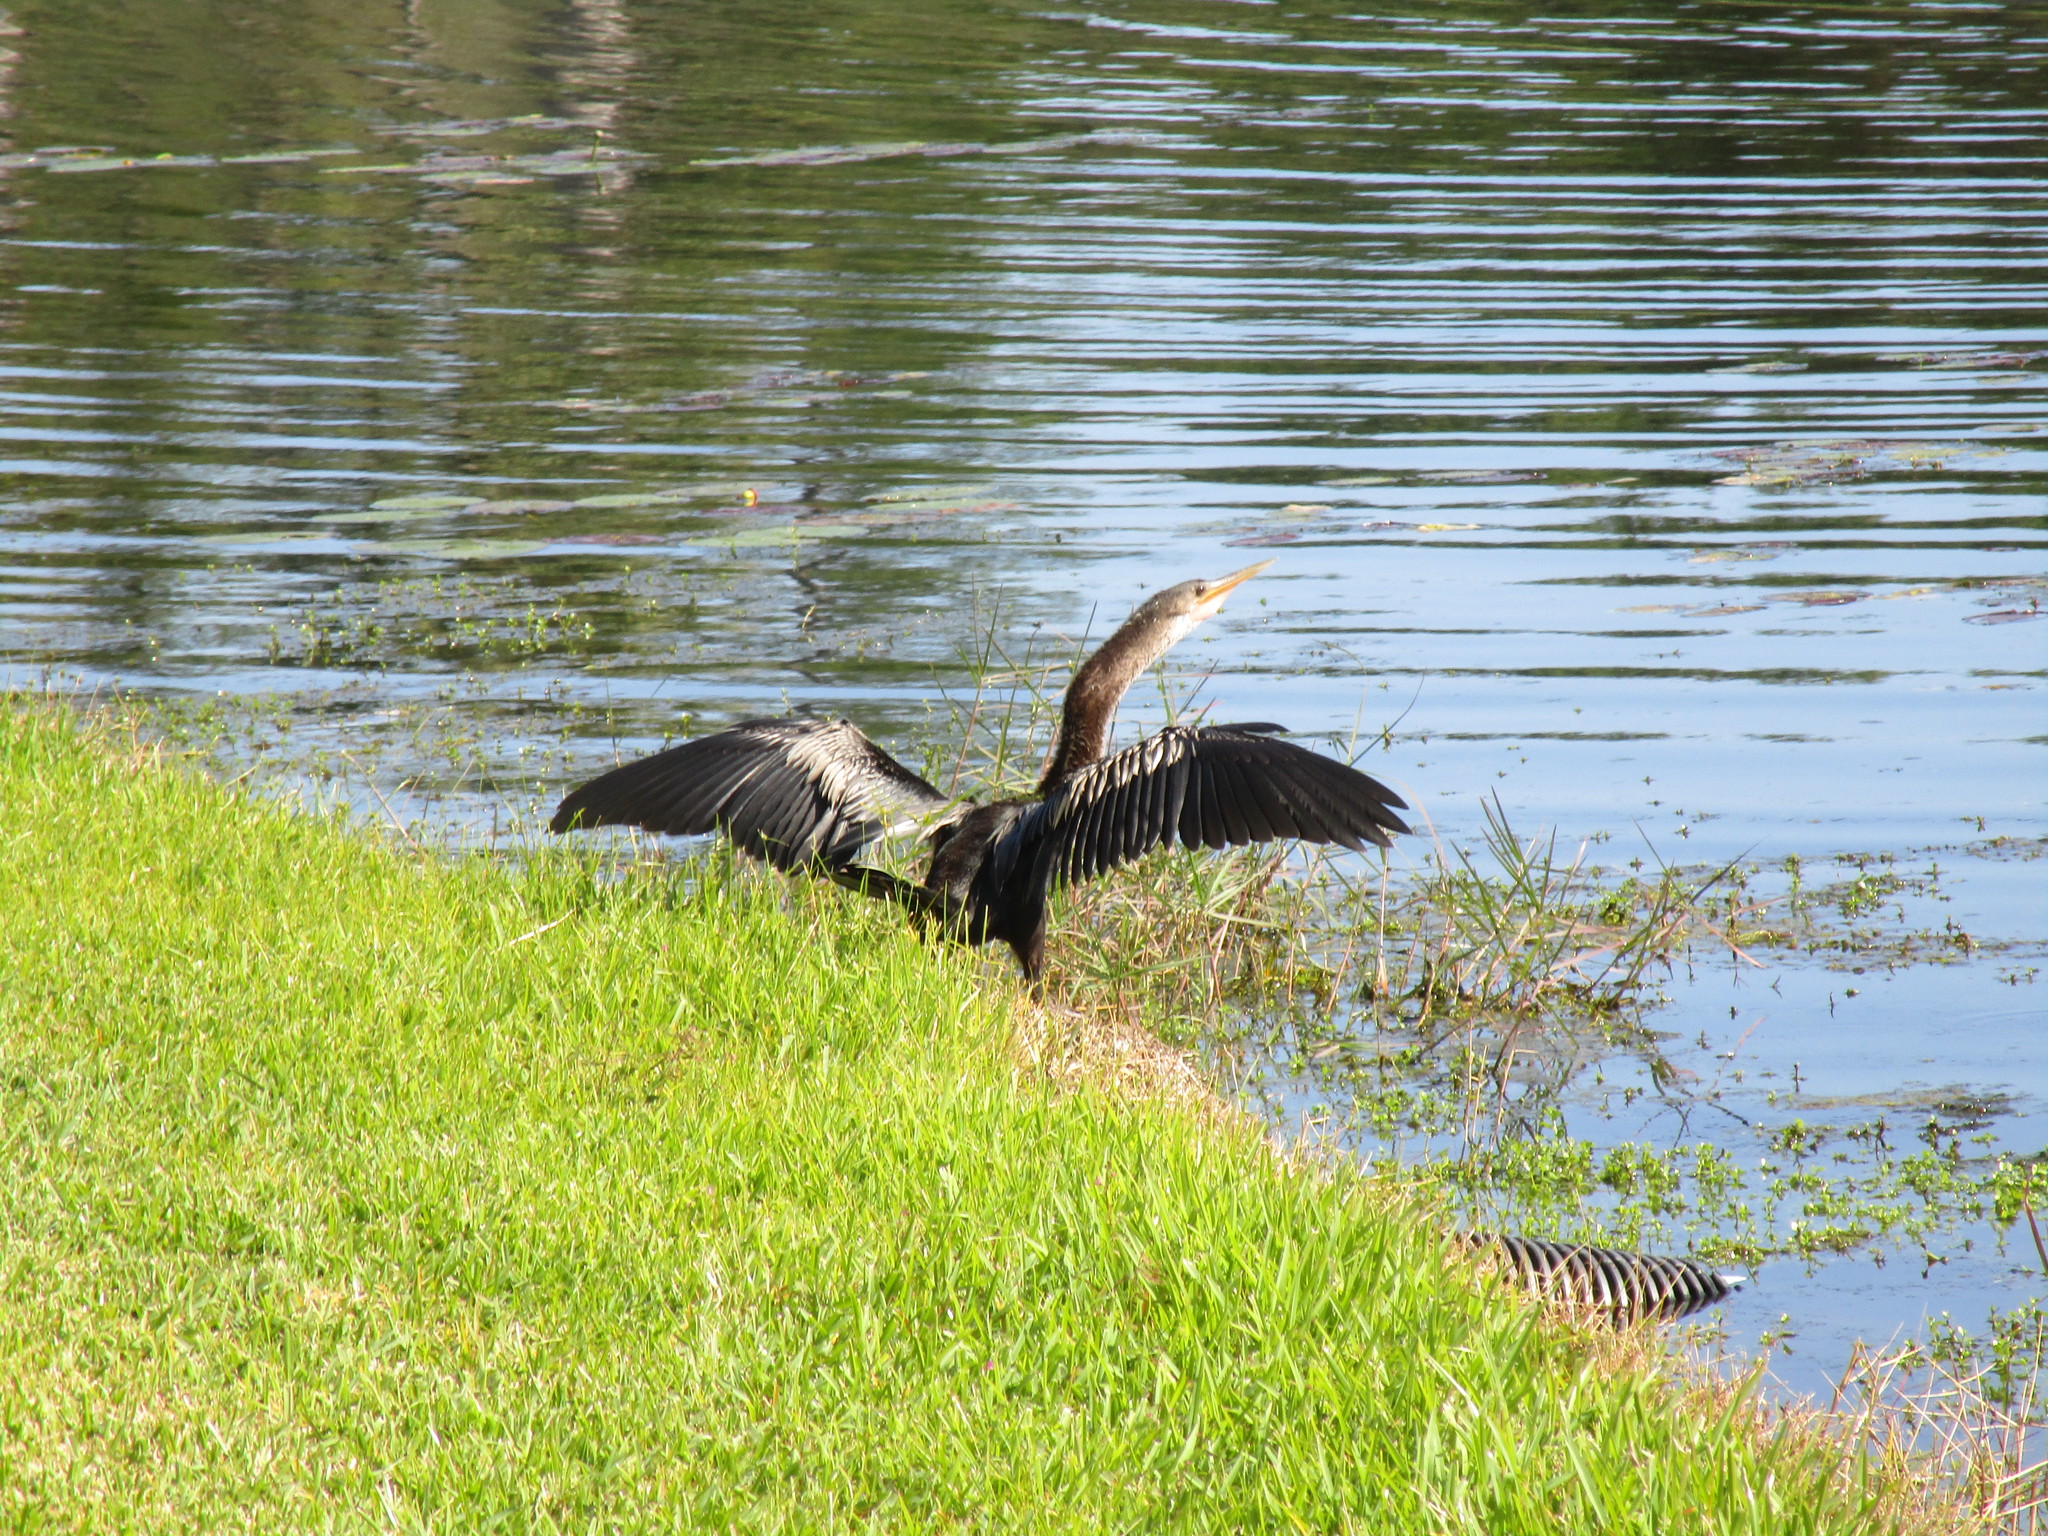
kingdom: Animalia
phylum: Chordata
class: Aves
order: Suliformes
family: Anhingidae
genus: Anhinga
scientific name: Anhinga anhinga
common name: Anhinga
